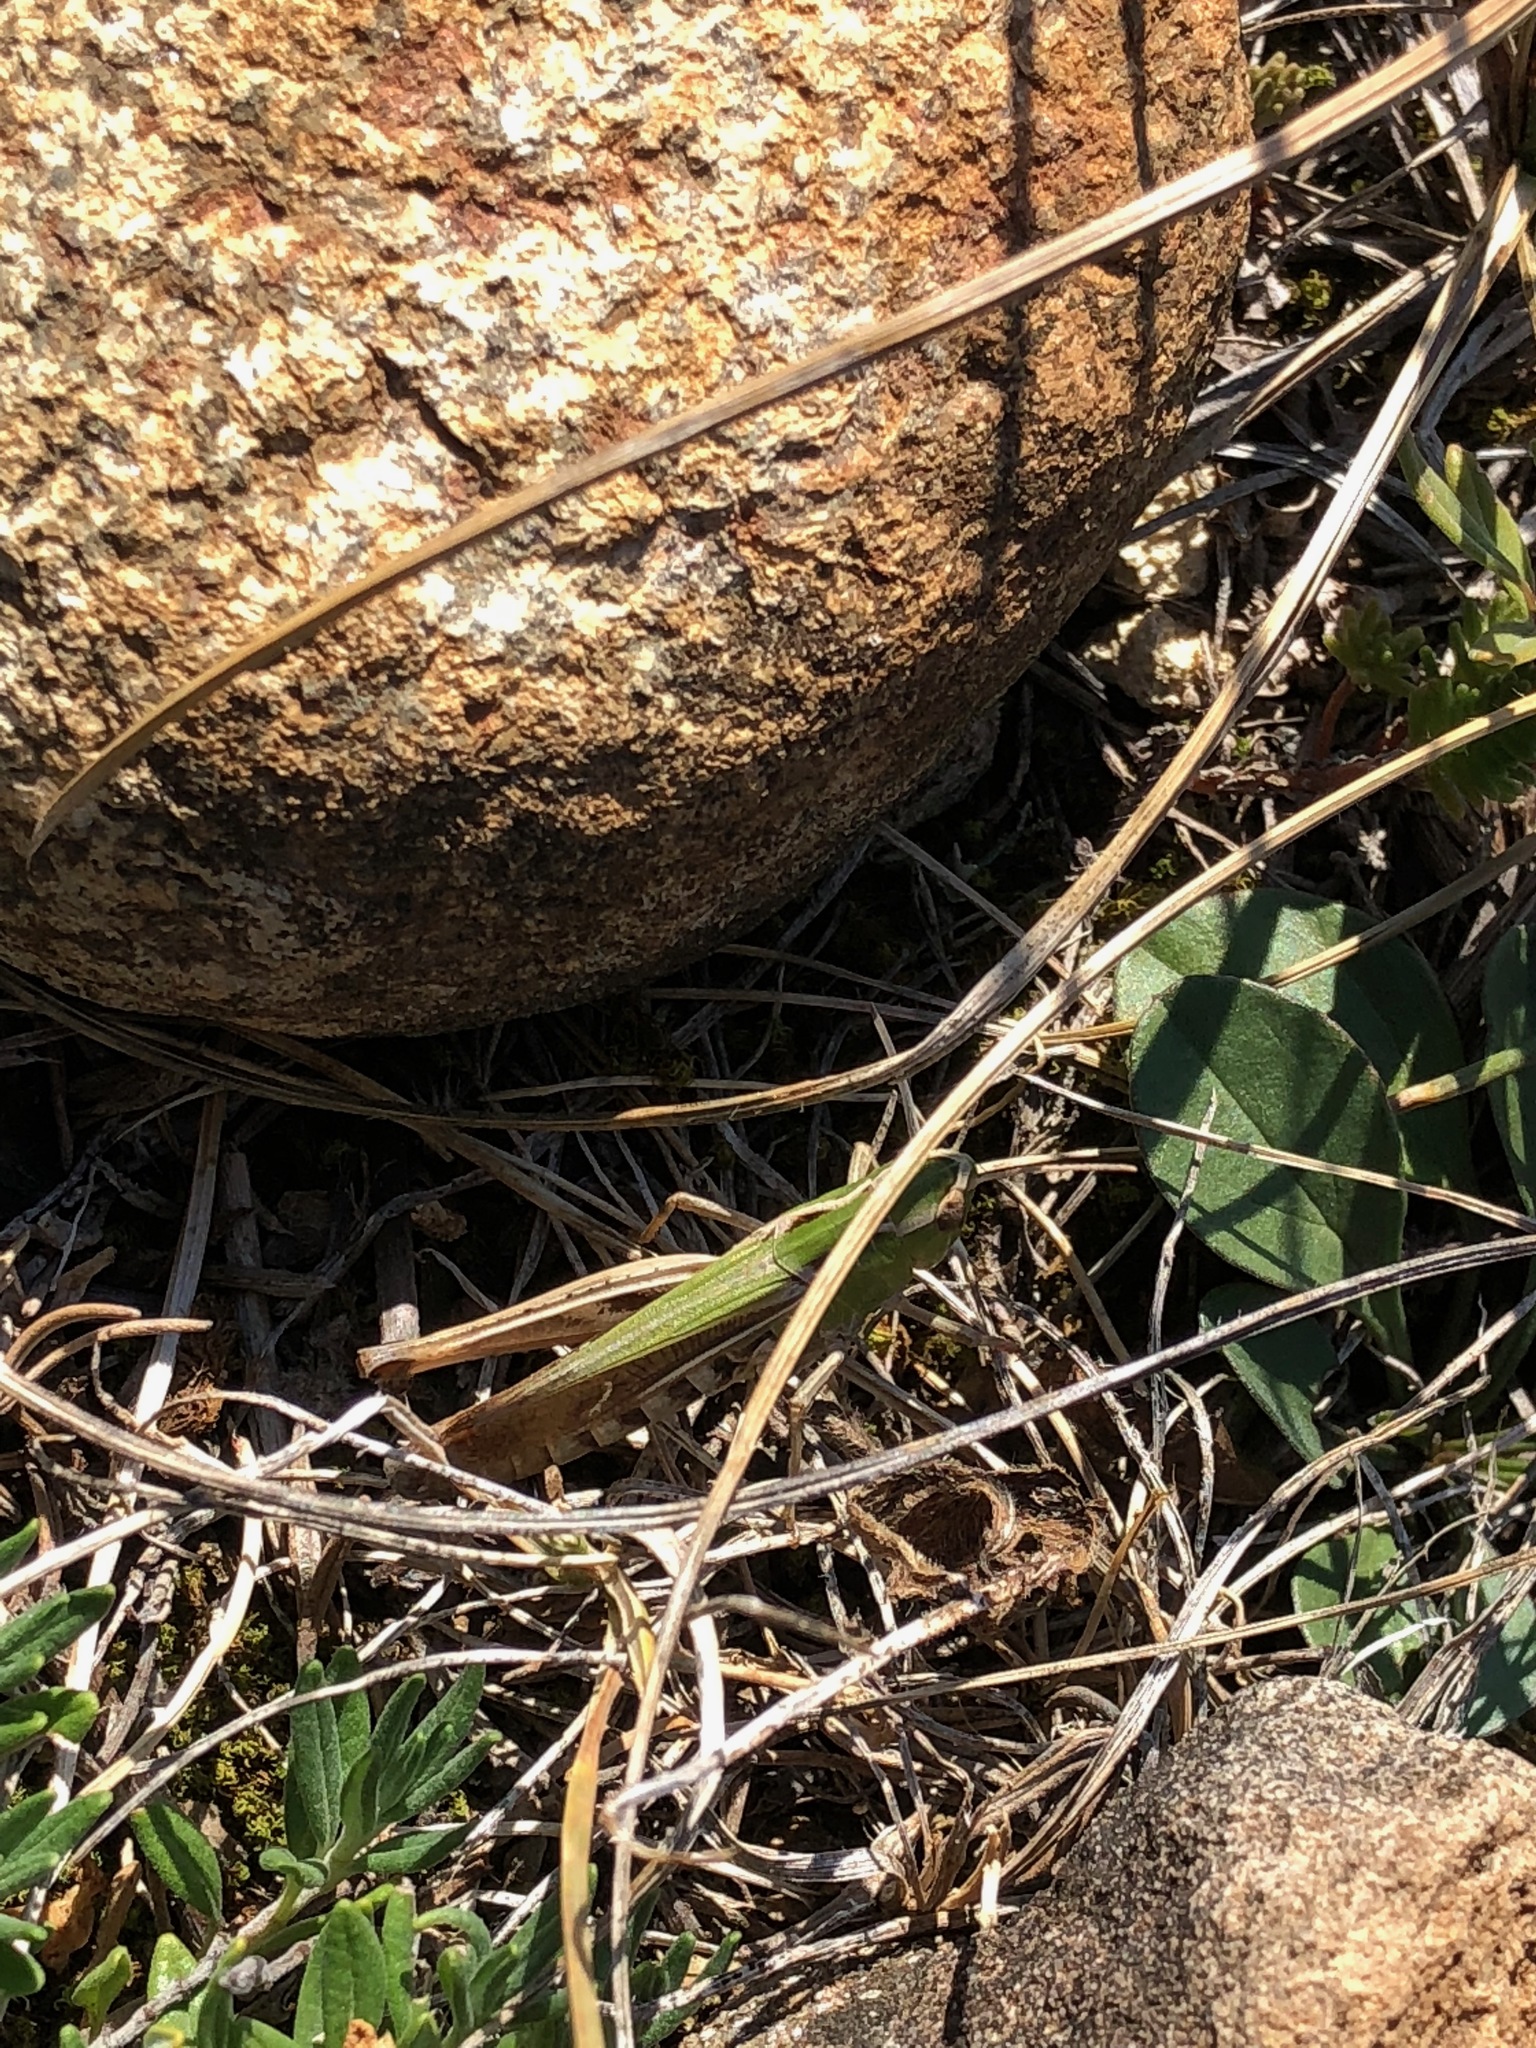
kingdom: Animalia
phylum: Arthropoda
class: Insecta
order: Orthoptera
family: Acrididae
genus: Stenobothrus
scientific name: Stenobothrus lineatus
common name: Stripe-winged grasshopper
